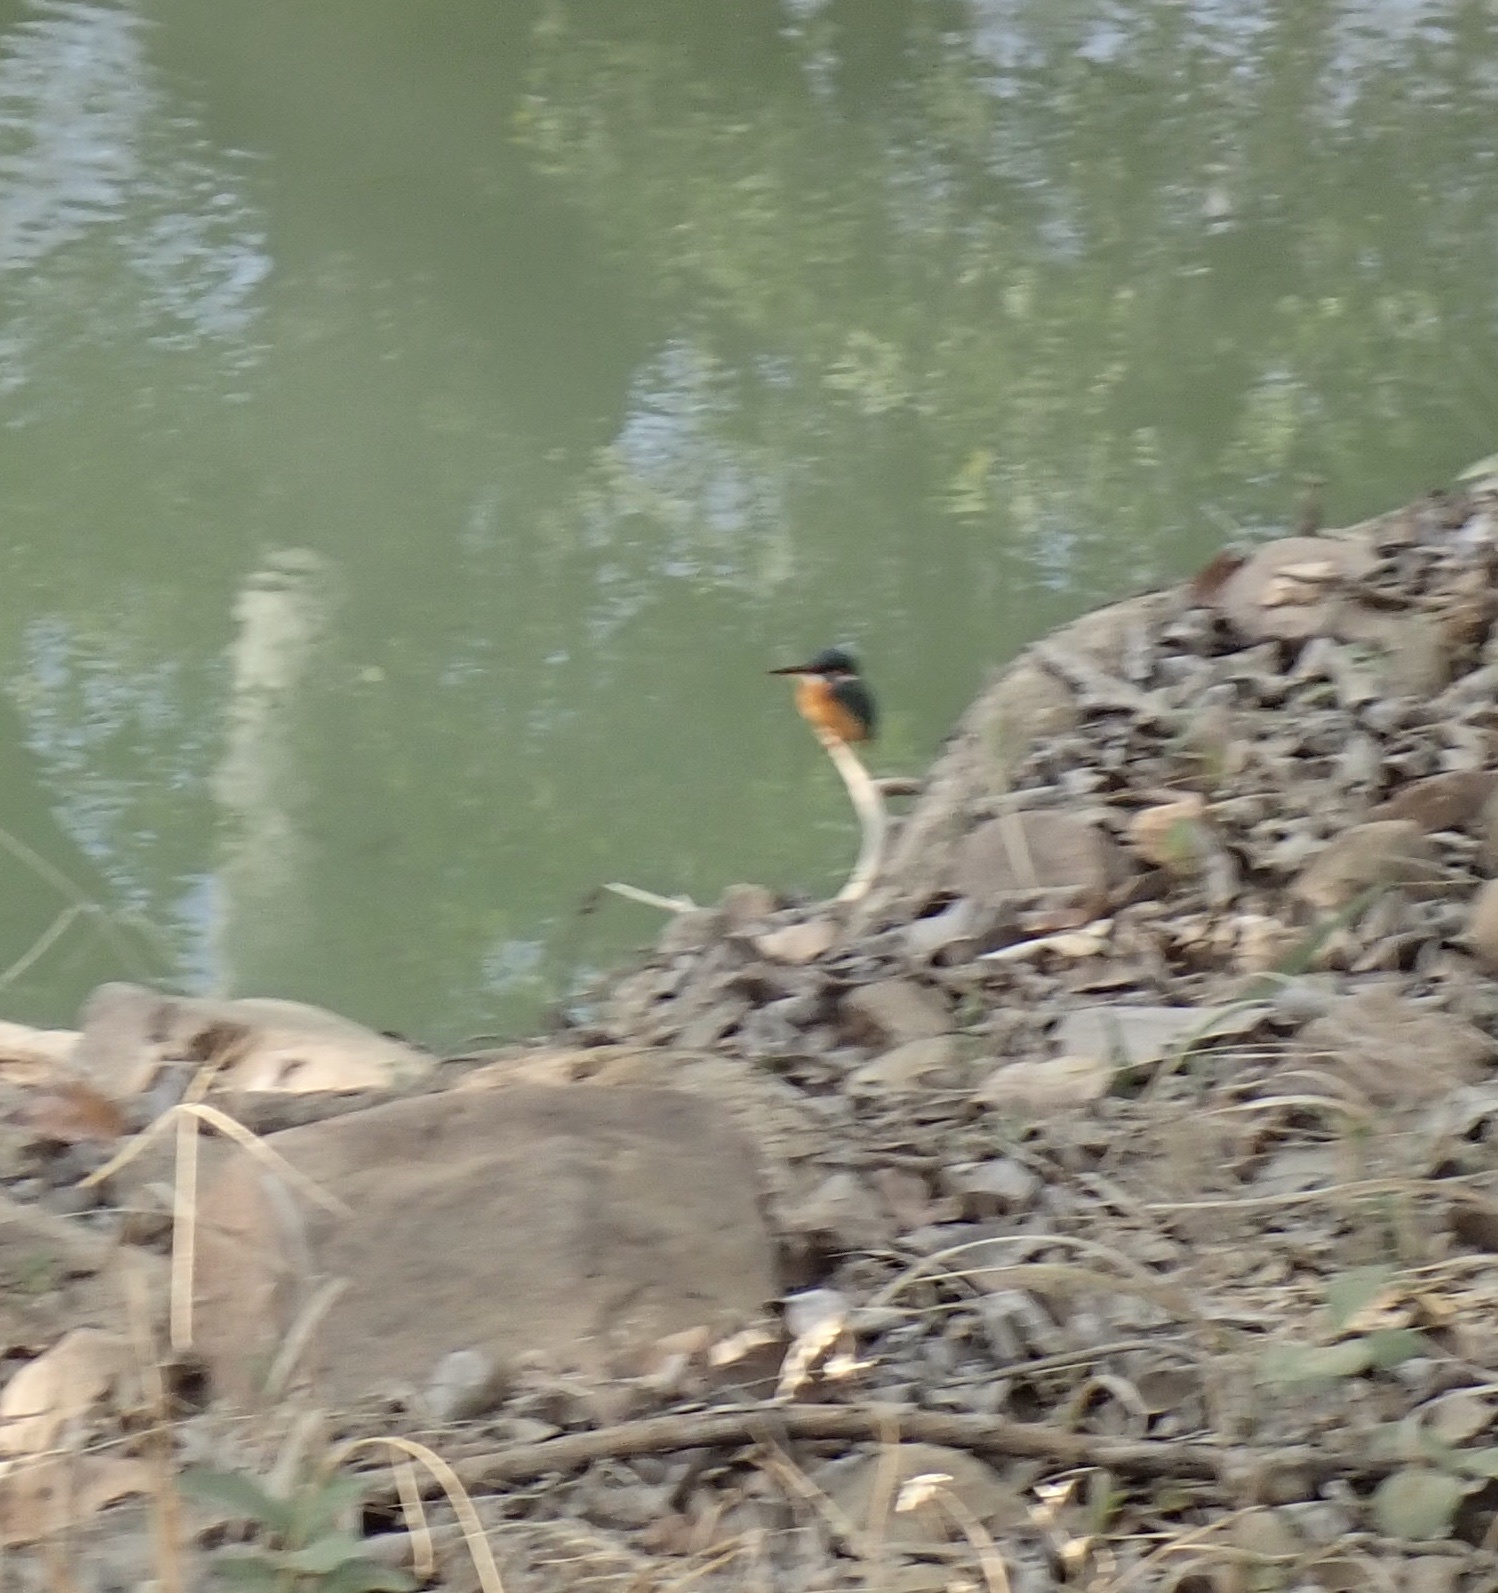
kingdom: Animalia
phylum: Chordata
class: Aves
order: Coraciiformes
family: Alcedinidae
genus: Alcedo
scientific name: Alcedo atthis
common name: Common kingfisher
